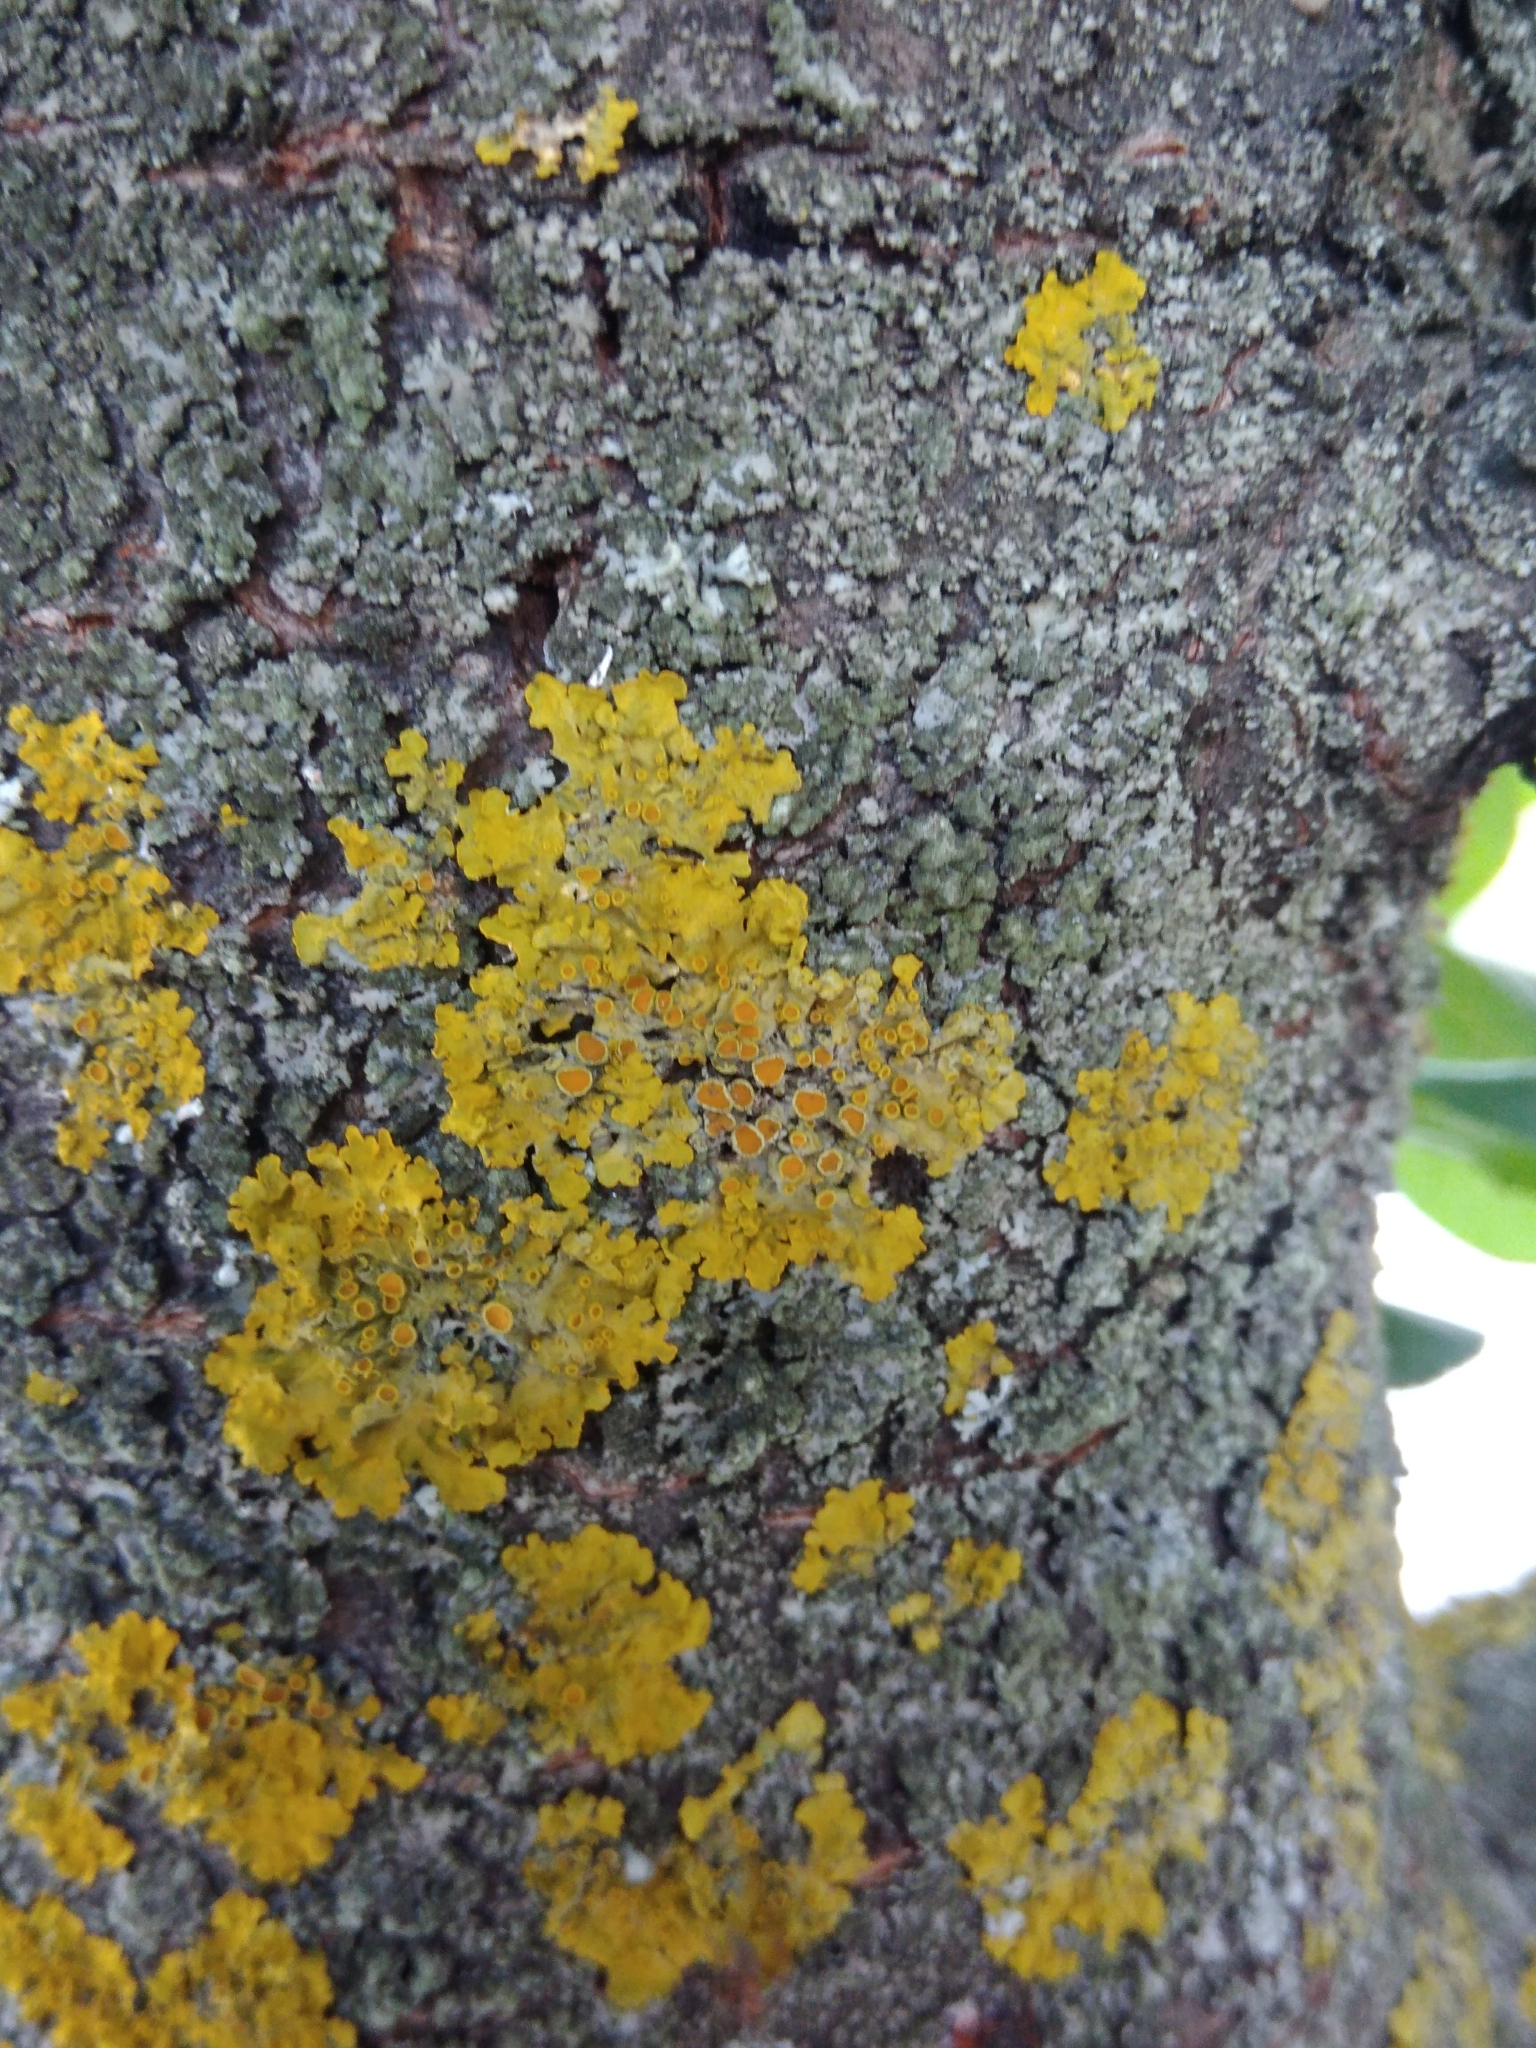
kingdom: Fungi
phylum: Ascomycota
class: Lecanoromycetes
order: Teloschistales
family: Teloschistaceae
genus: Xanthoria
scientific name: Xanthoria parietina
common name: Common orange lichen
